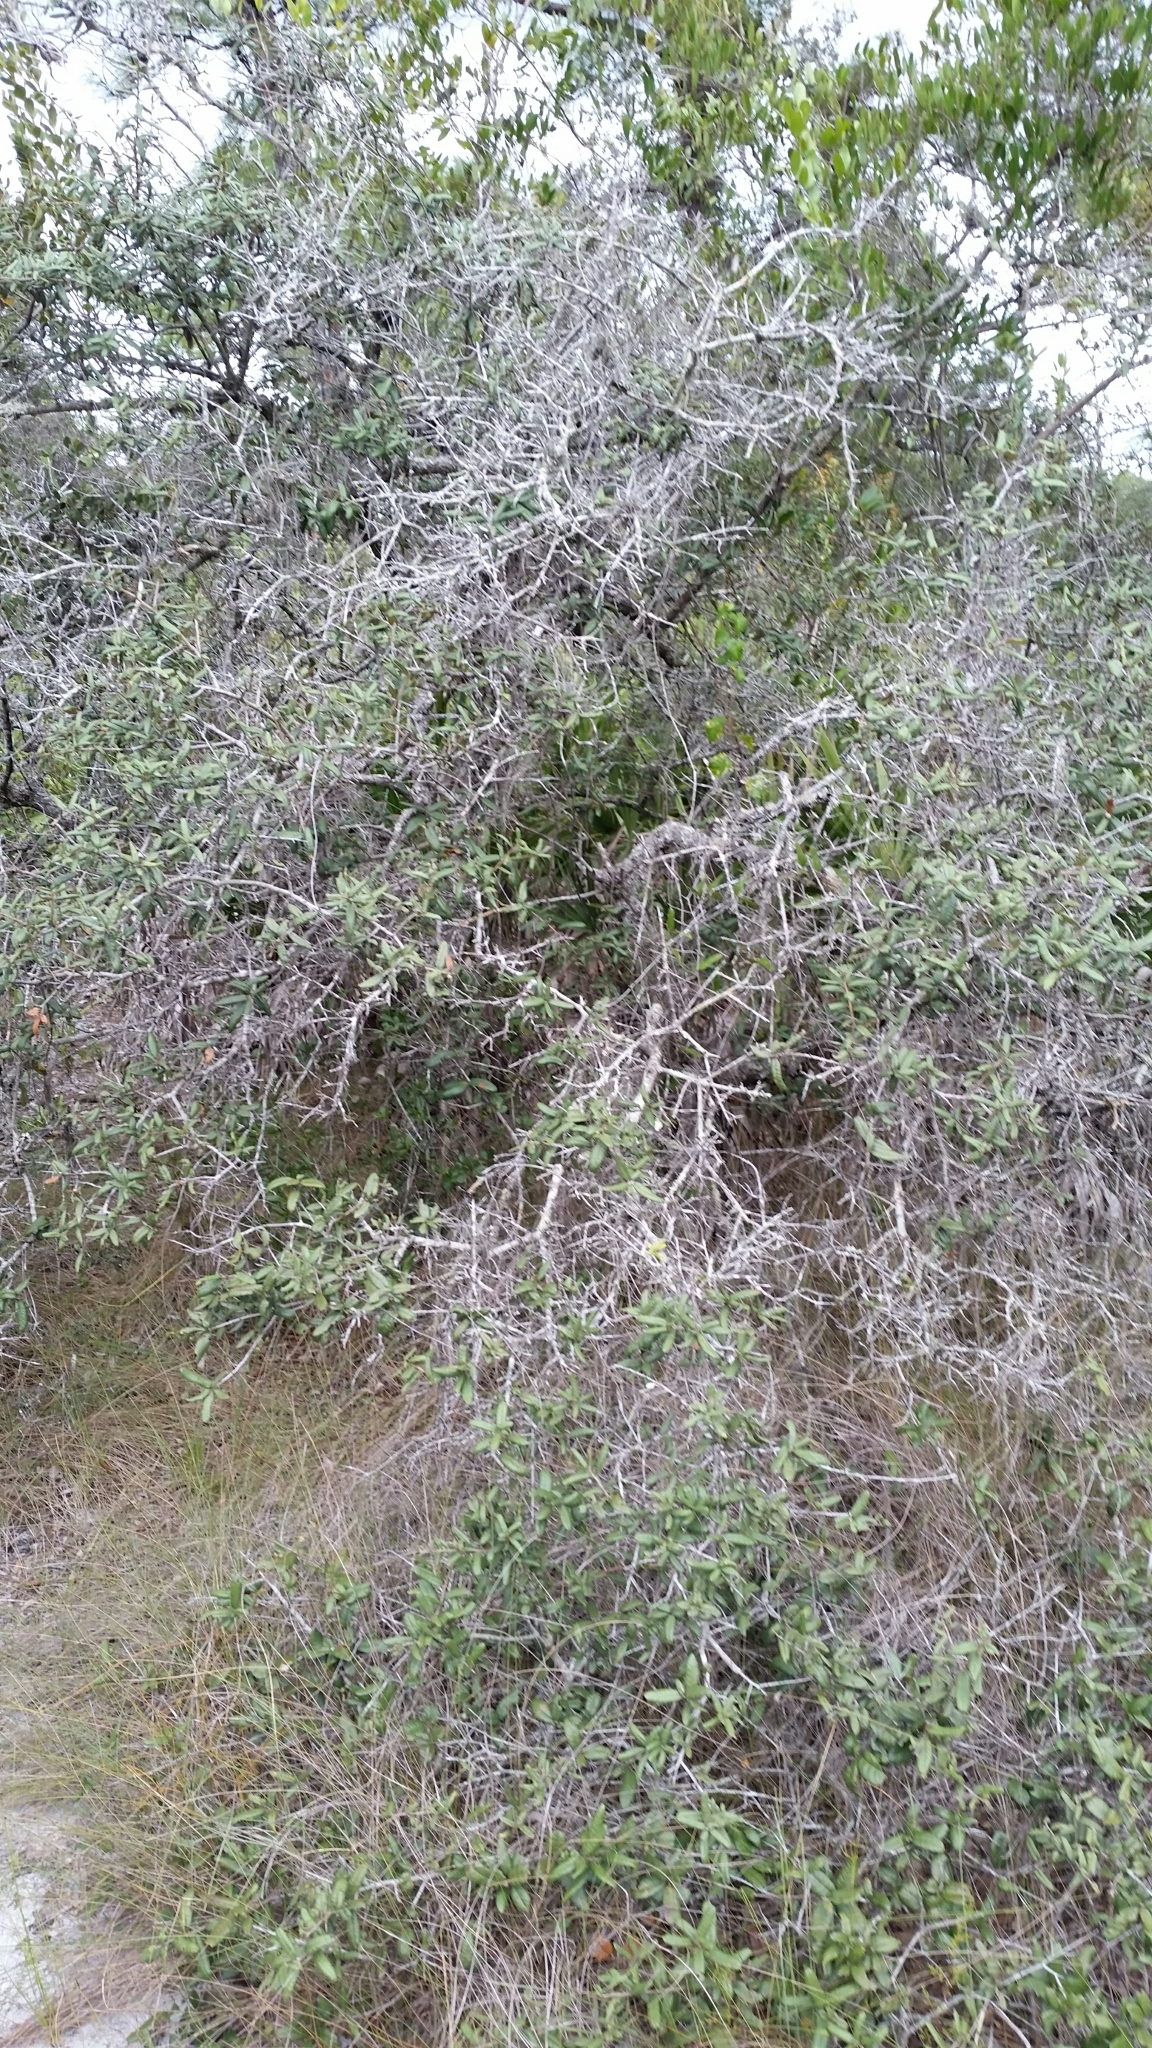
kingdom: Plantae
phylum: Tracheophyta
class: Magnoliopsida
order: Fagales
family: Fagaceae
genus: Quercus
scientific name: Quercus geminata
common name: Sand live oak
